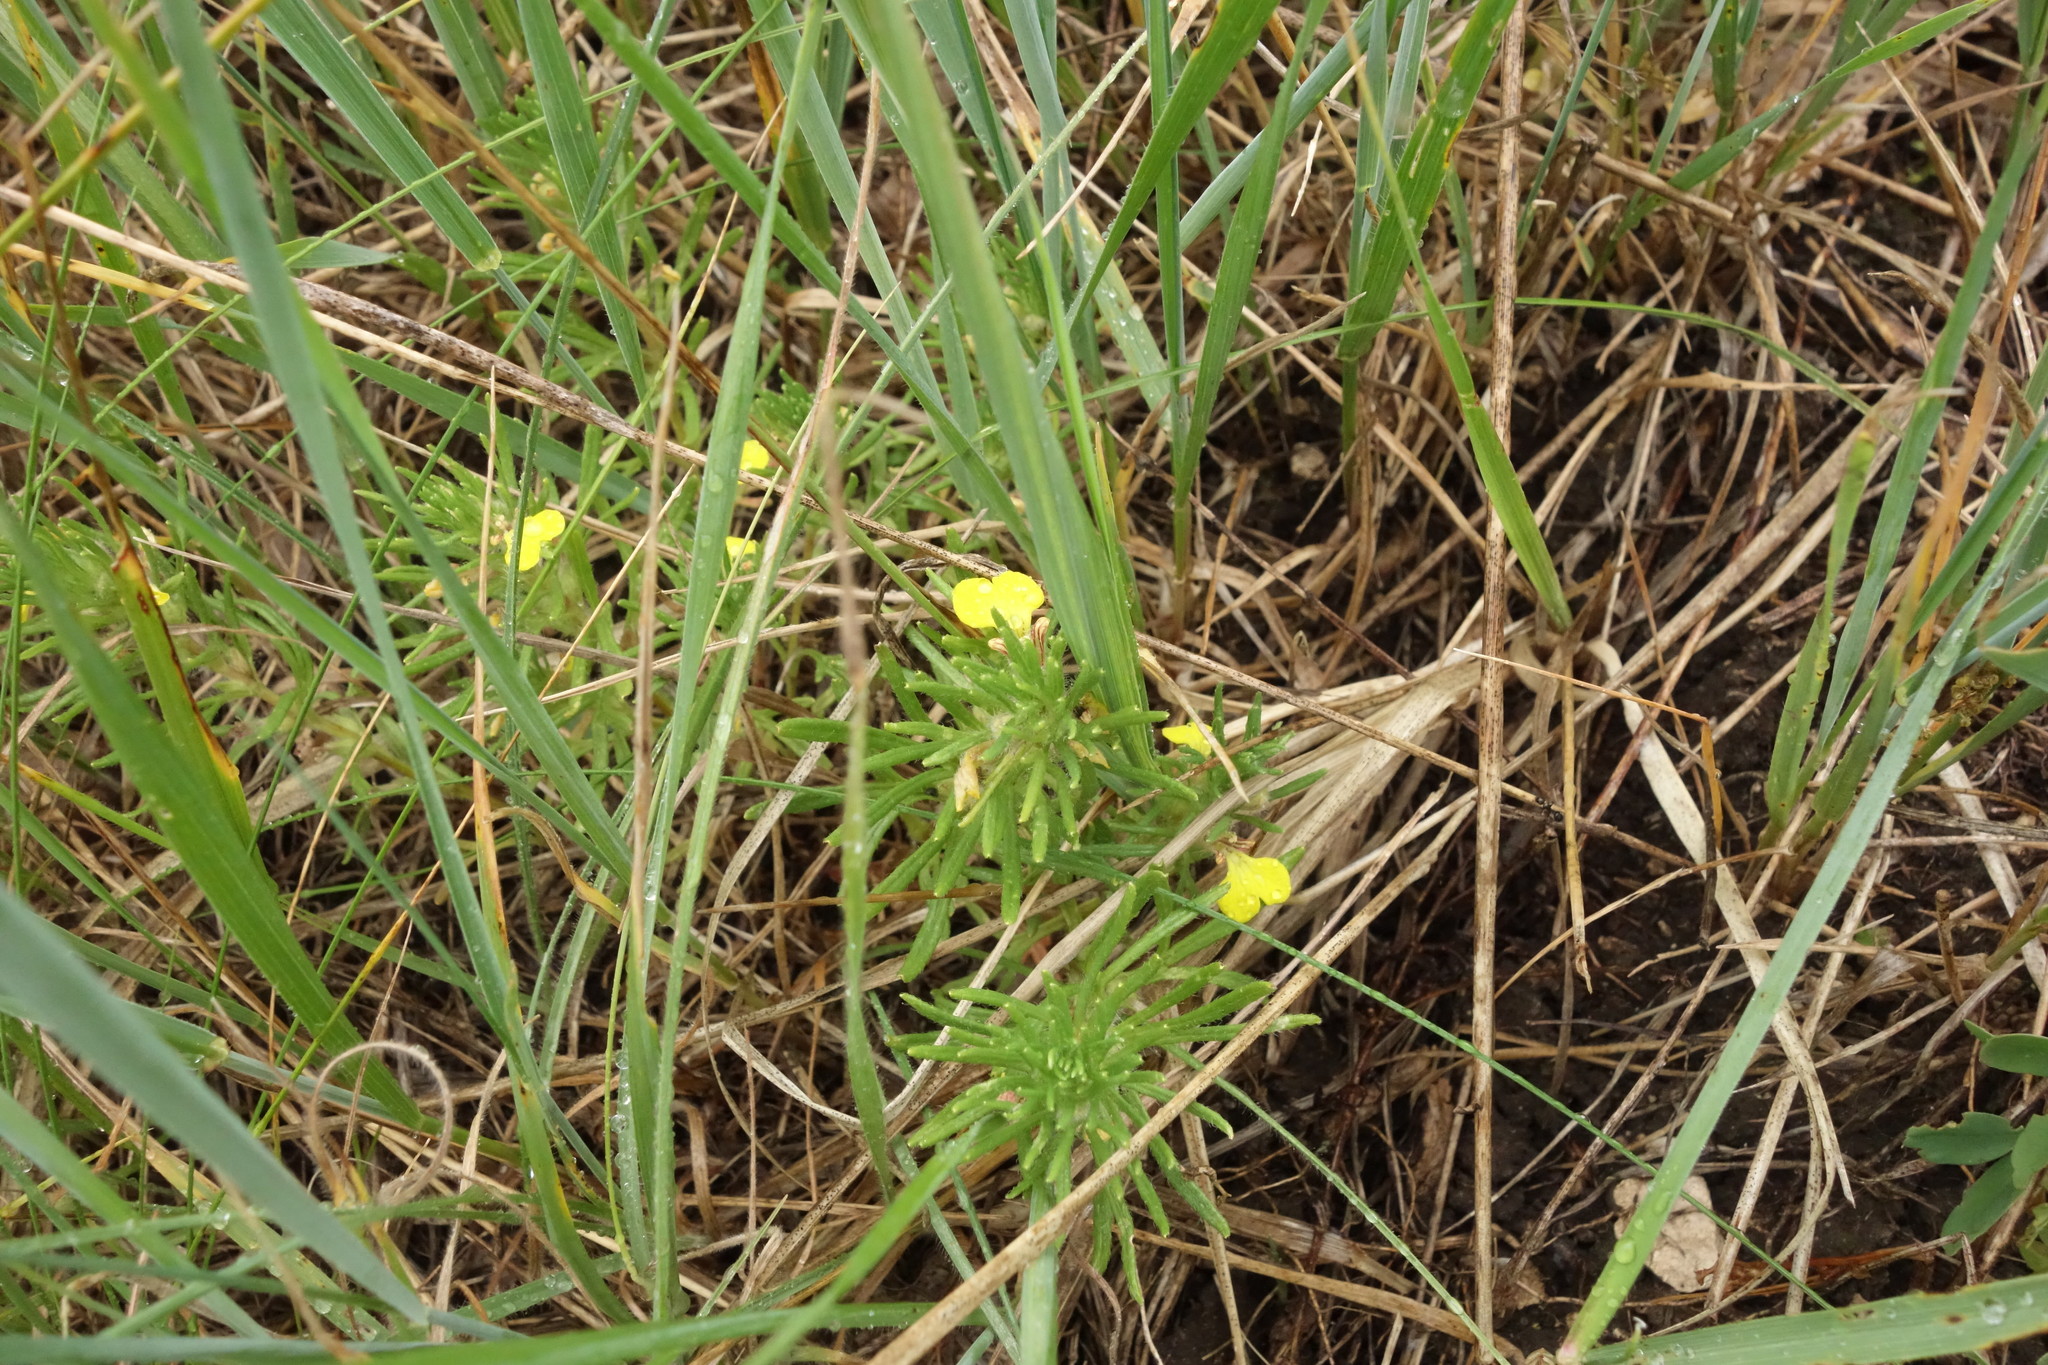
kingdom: Plantae
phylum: Tracheophyta
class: Magnoliopsida
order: Lamiales
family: Lamiaceae
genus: Ajuga
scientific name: Ajuga chamaepitys
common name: Ground-pine
